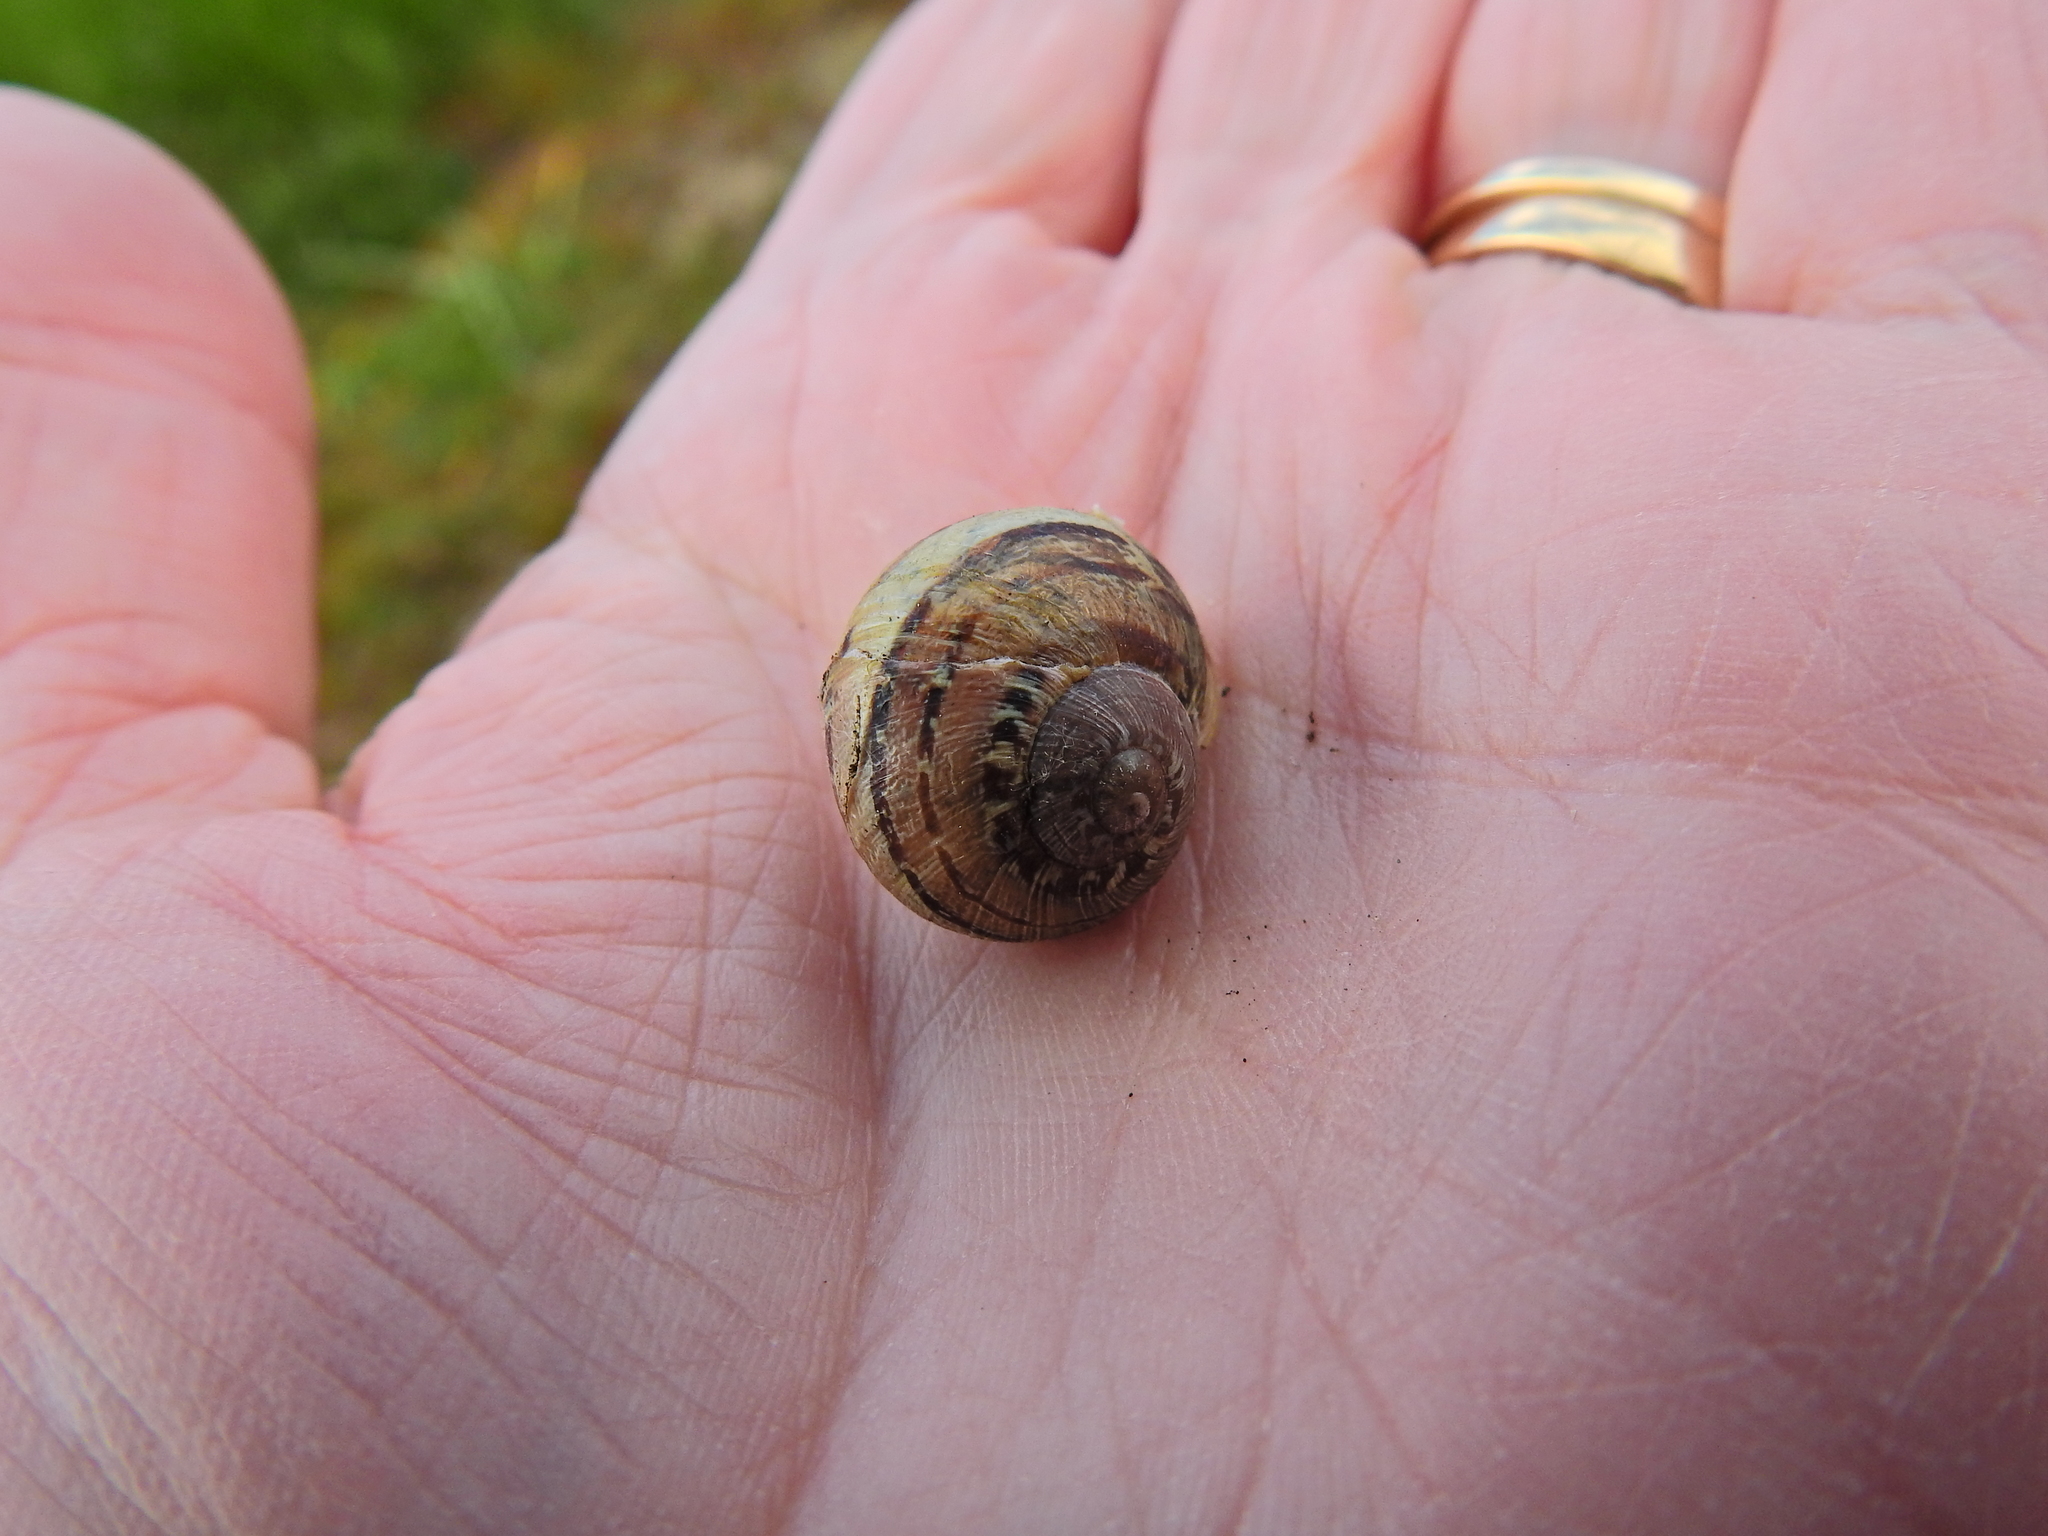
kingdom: Animalia
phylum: Mollusca
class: Gastropoda
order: Stylommatophora
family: Helicidae
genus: Cornu
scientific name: Cornu aspersum
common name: Brown garden snail
